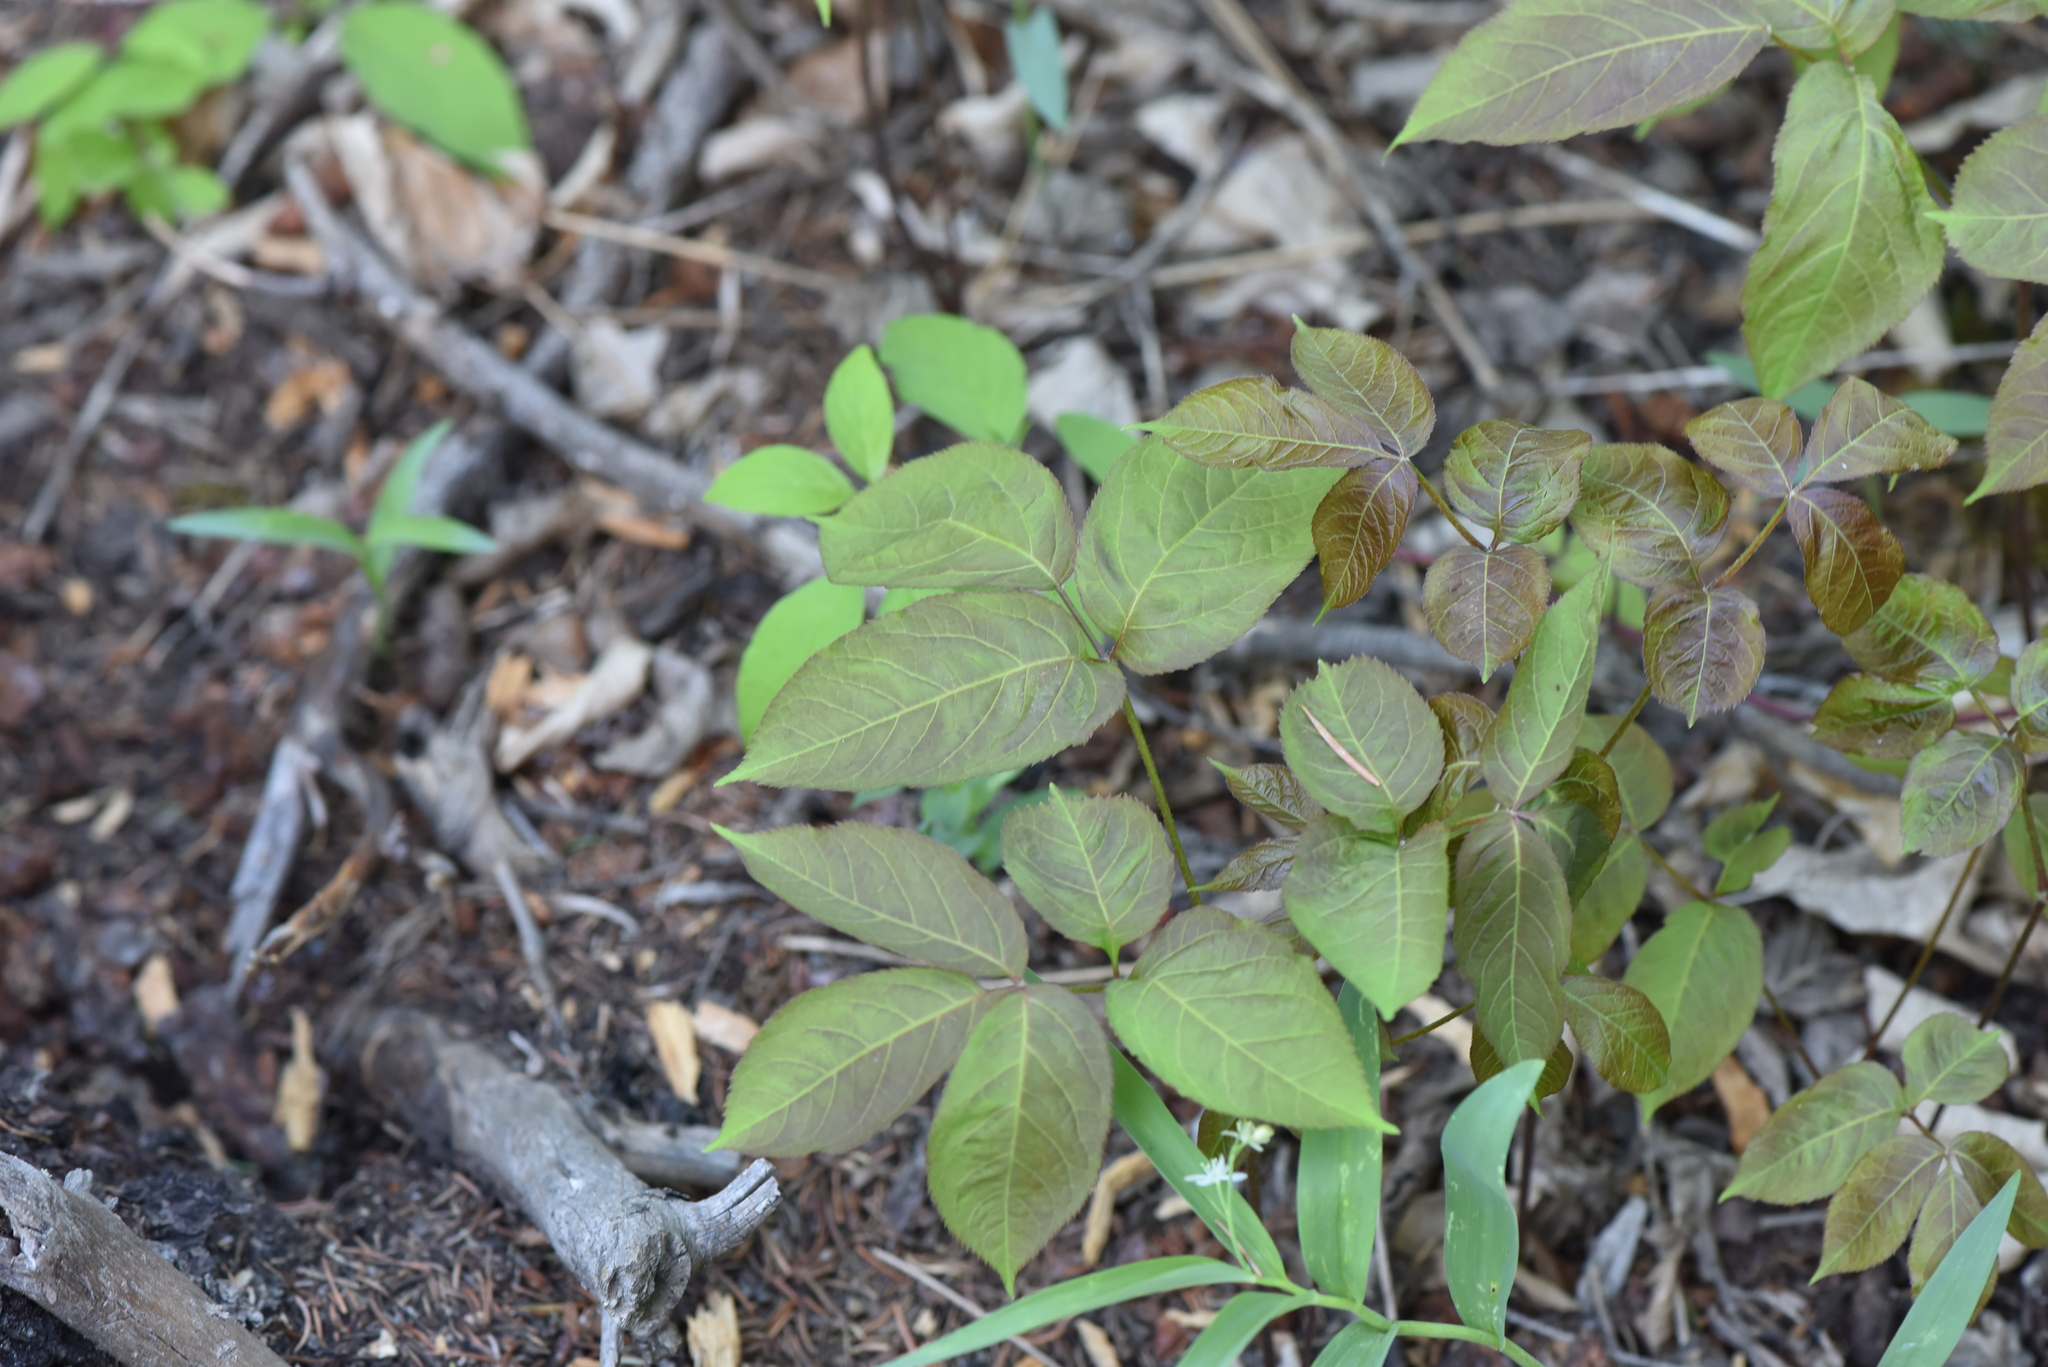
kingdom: Plantae
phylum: Tracheophyta
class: Magnoliopsida
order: Apiales
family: Araliaceae
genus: Aralia
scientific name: Aralia nudicaulis
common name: Wild sarsaparilla
